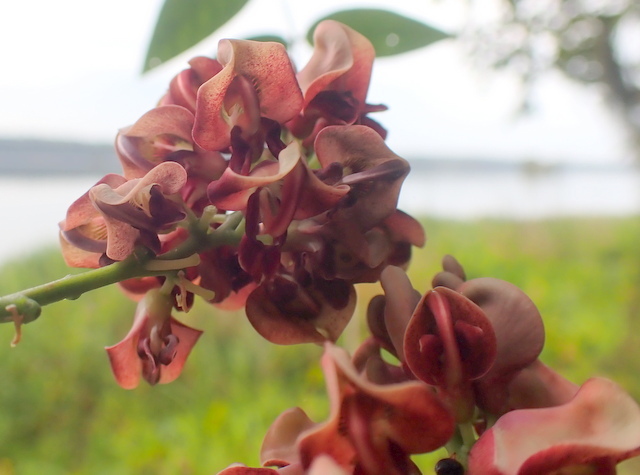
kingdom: Plantae
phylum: Tracheophyta
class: Magnoliopsida
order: Fabales
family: Fabaceae
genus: Apios
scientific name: Apios americana
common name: American potato-bean
